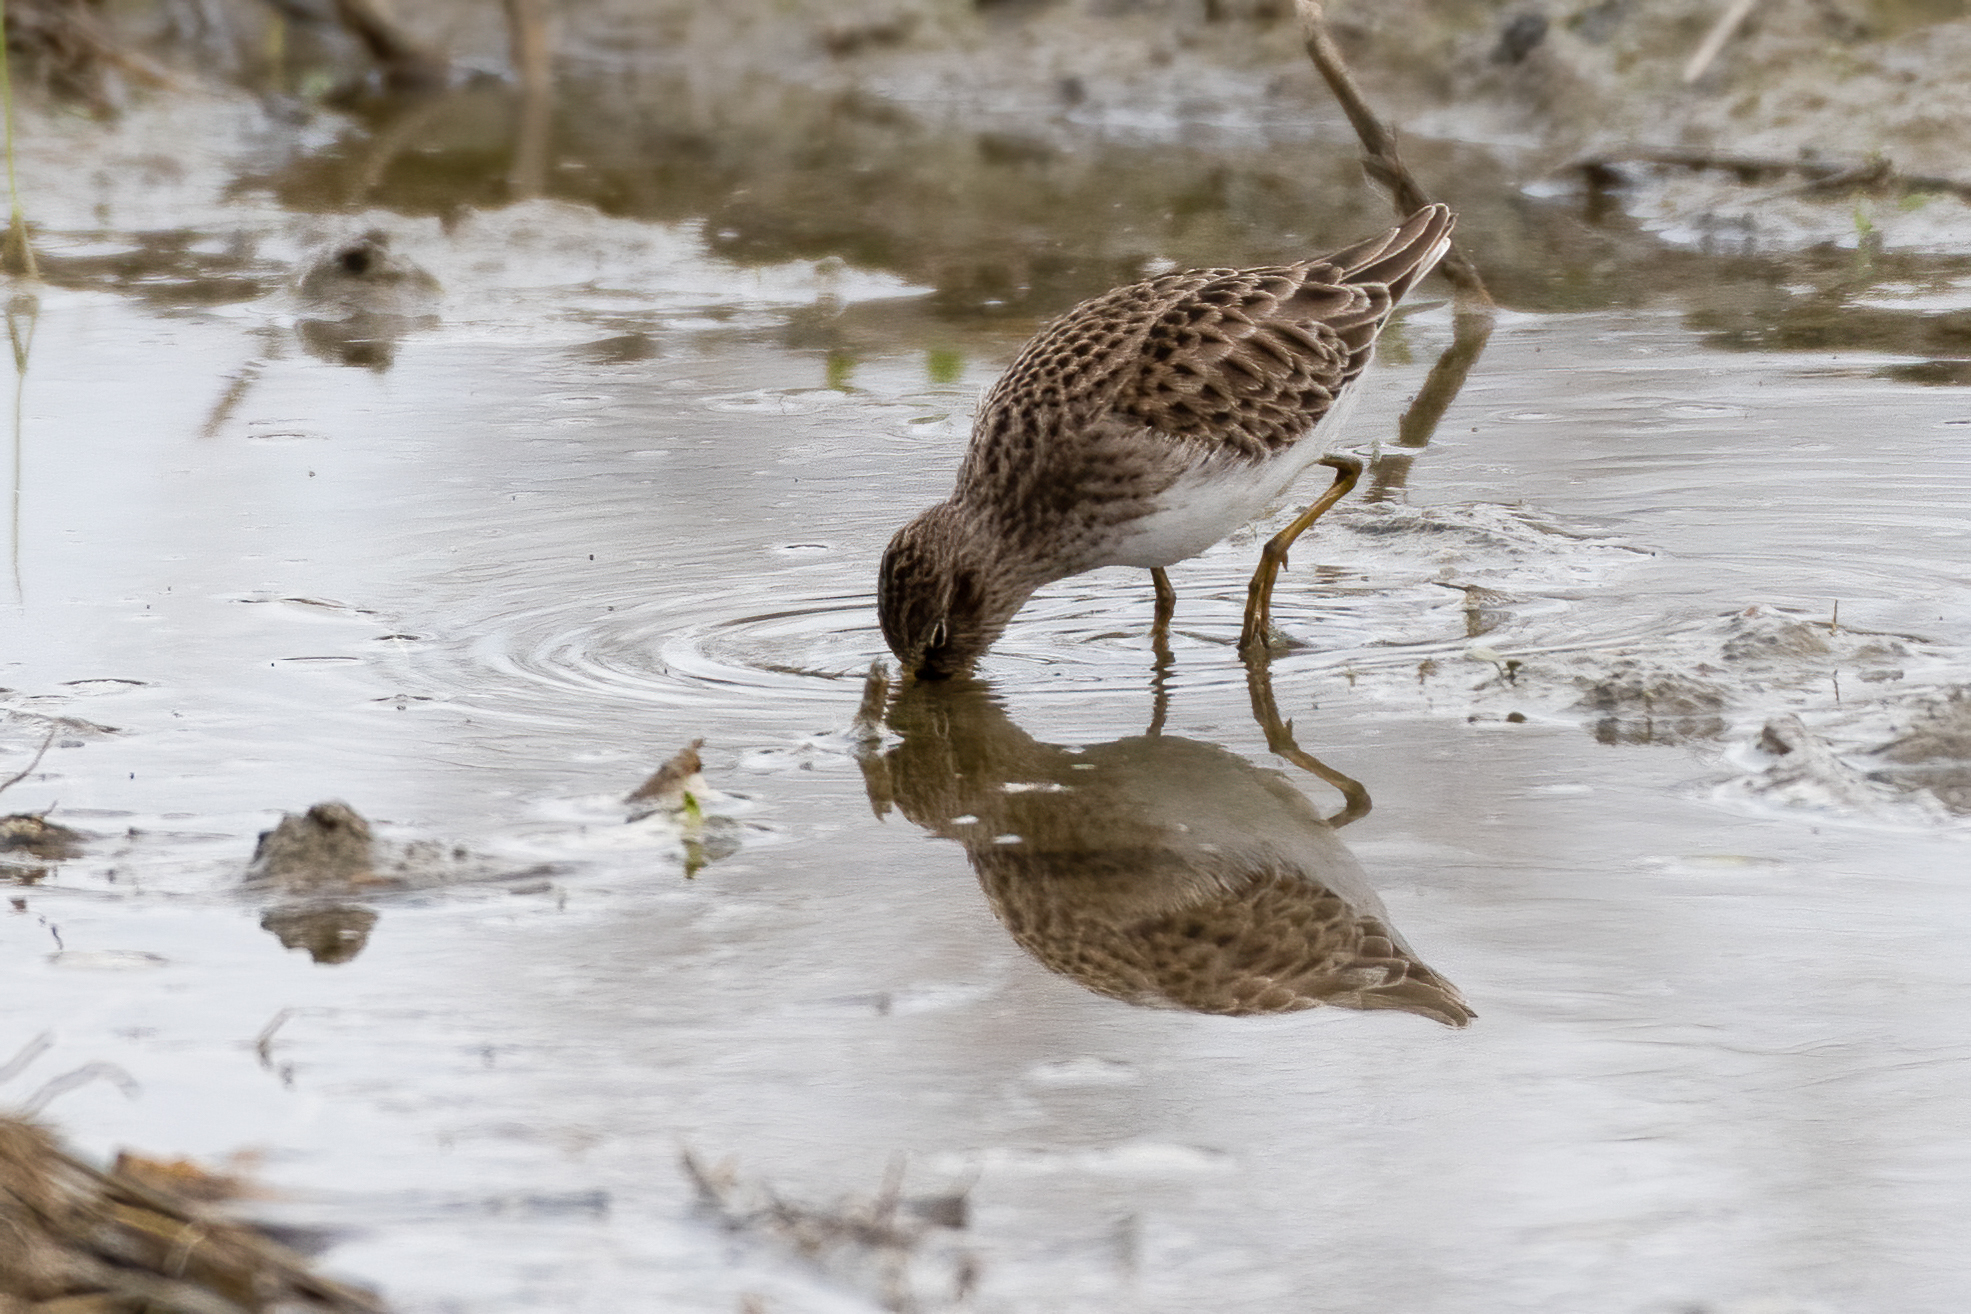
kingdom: Animalia
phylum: Chordata
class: Aves
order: Charadriiformes
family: Scolopacidae
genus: Calidris
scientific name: Calidris minutilla
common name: Least sandpiper
